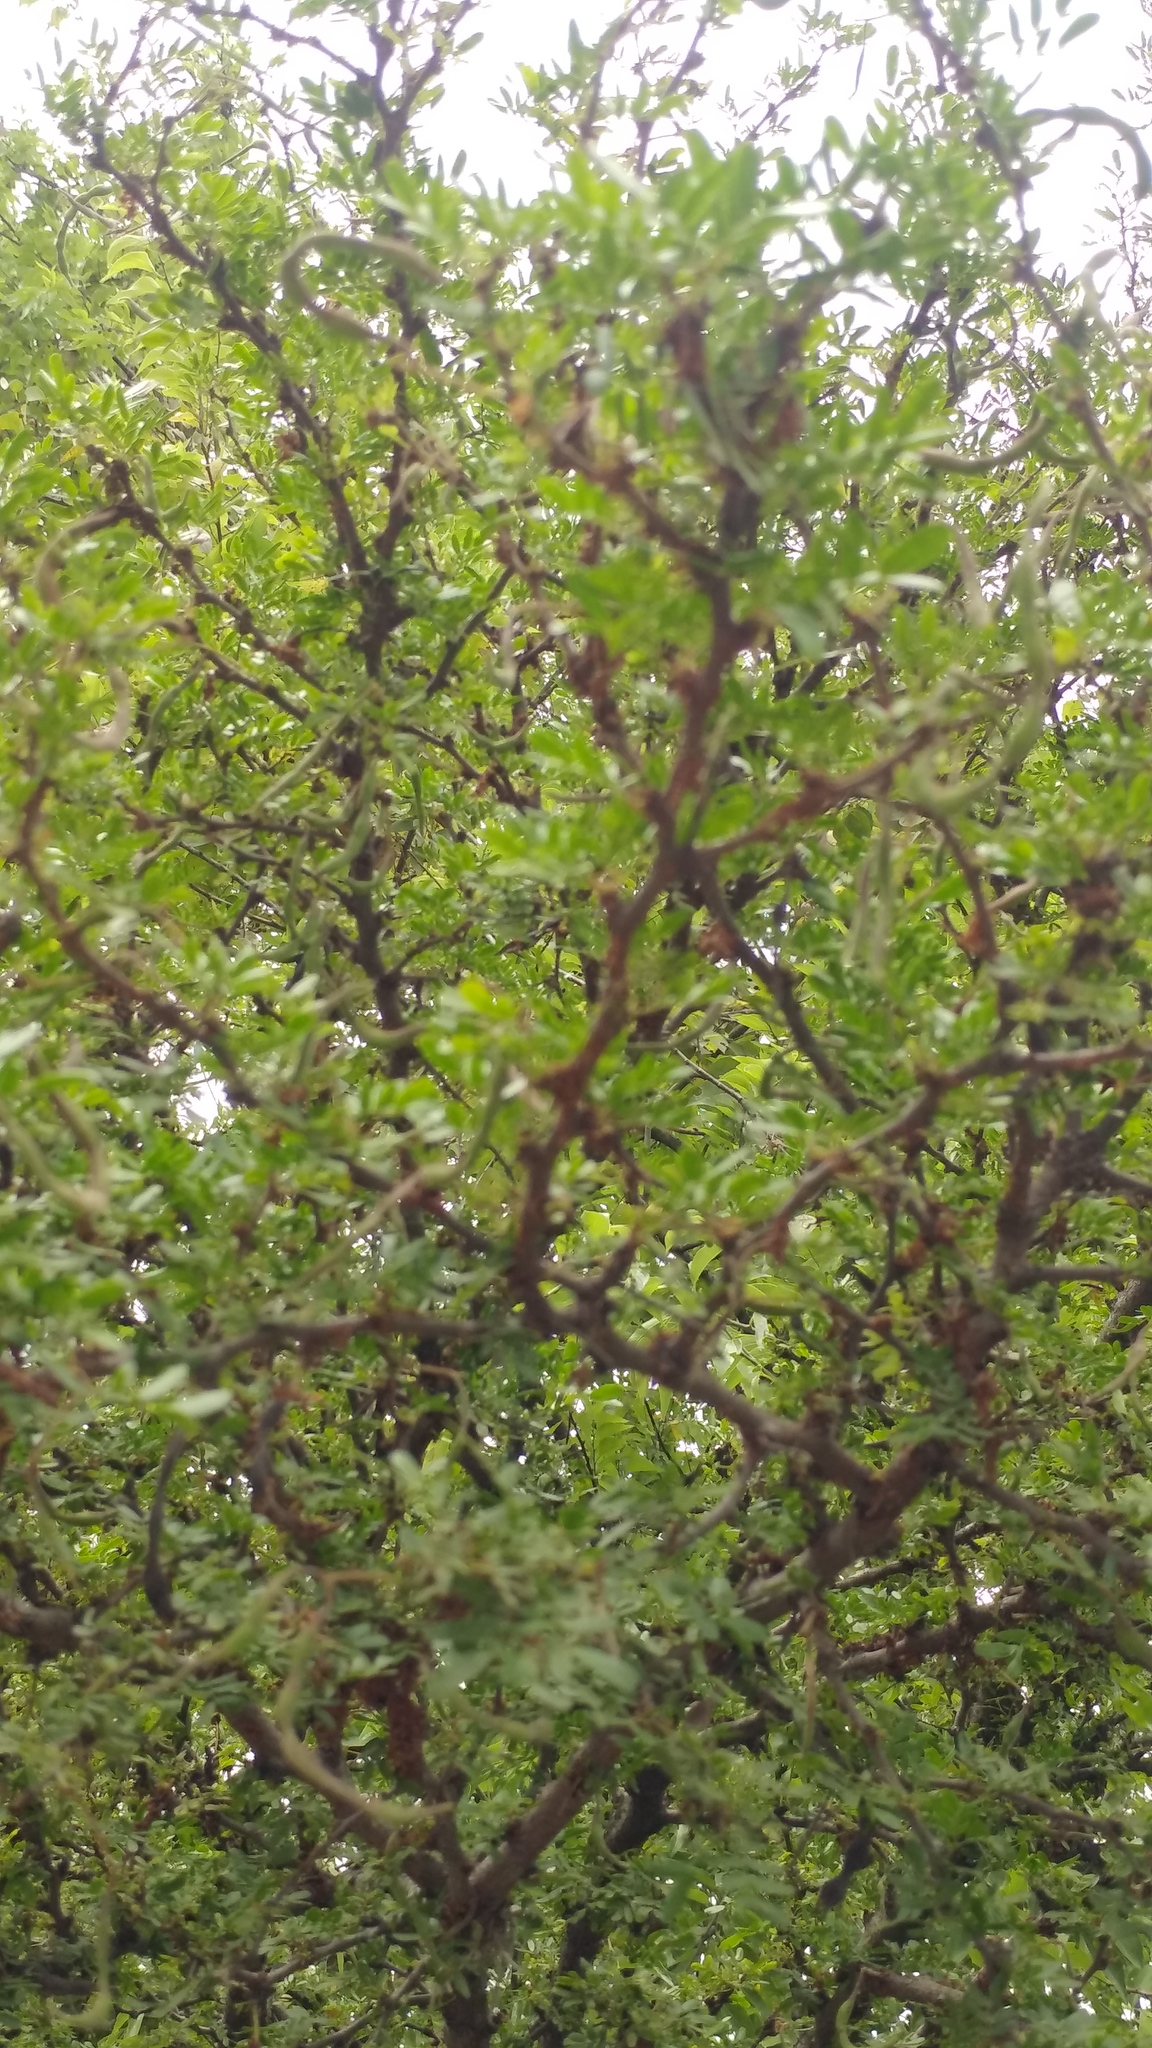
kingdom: Plantae
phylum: Tracheophyta
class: Magnoliopsida
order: Fabales
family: Fabaceae
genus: Vachellia
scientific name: Vachellia rigidula
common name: Blackbrush
